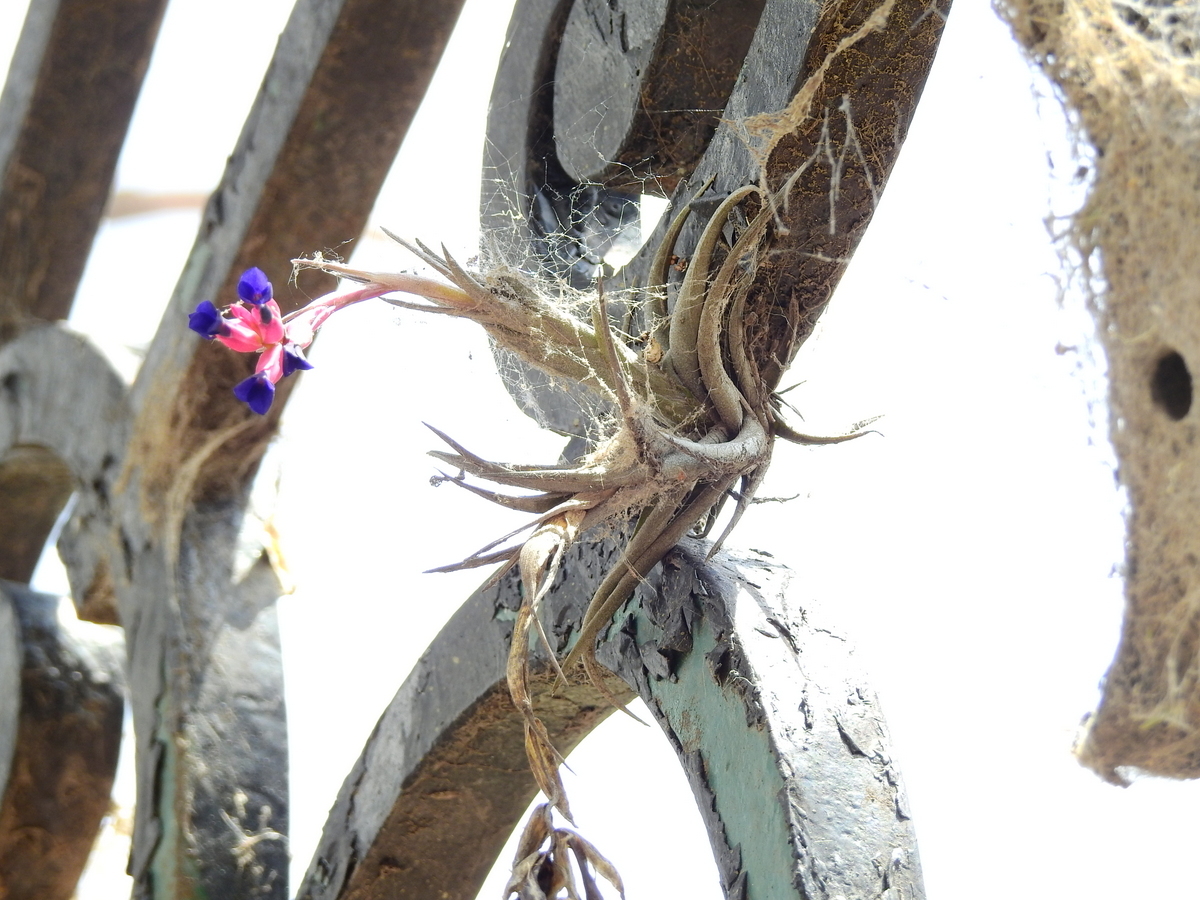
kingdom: Plantae
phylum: Tracheophyta
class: Liliopsida
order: Poales
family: Bromeliaceae
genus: Tillandsia
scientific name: Tillandsia aeranthos
